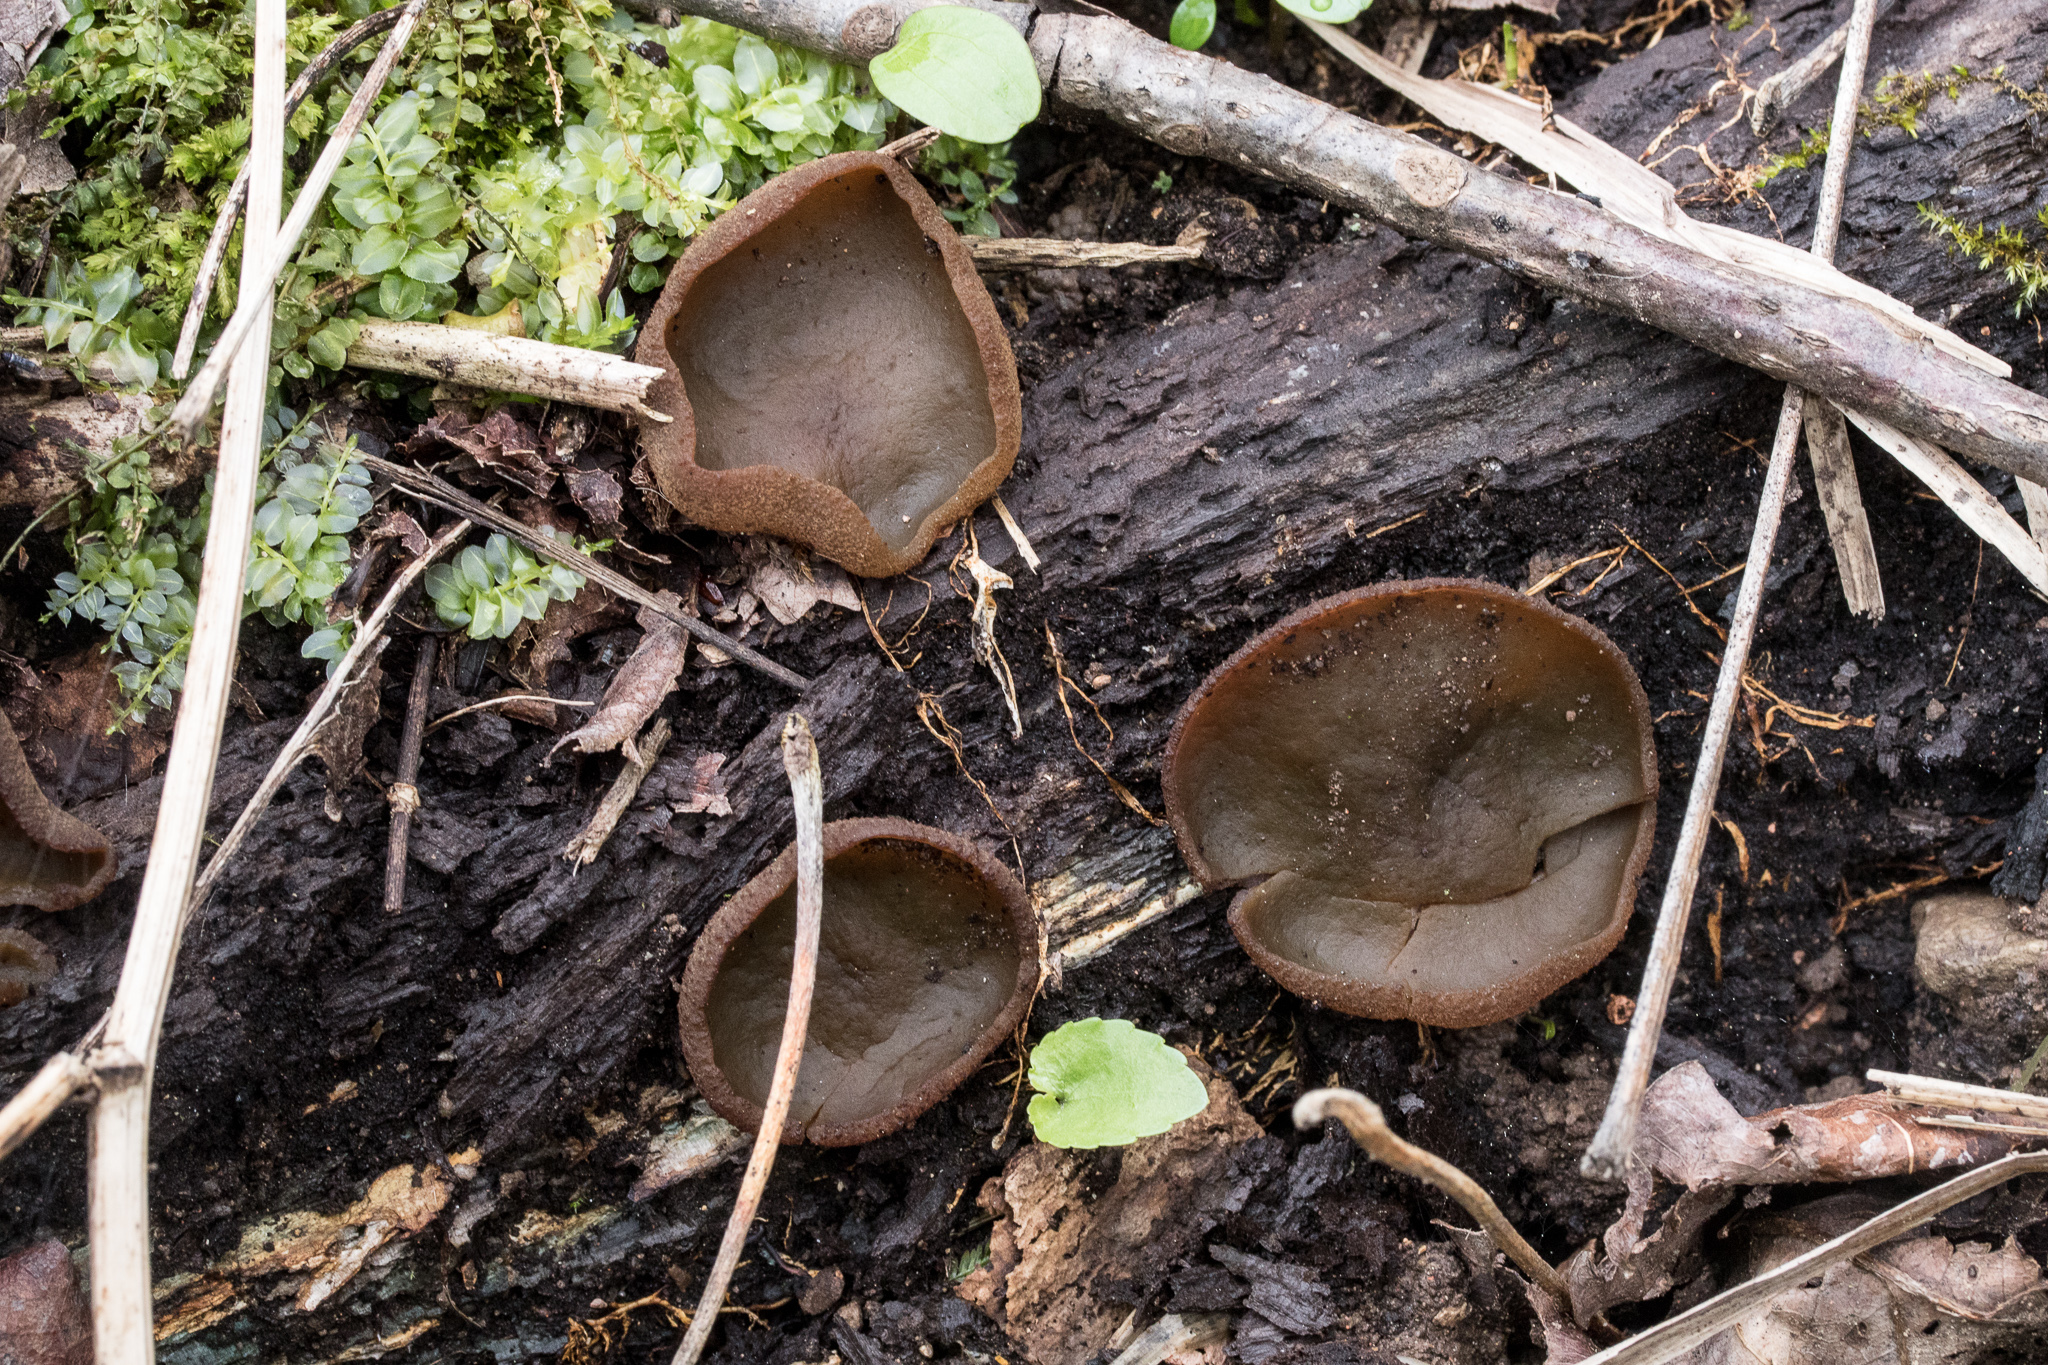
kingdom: Fungi
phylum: Ascomycota
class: Pezizomycetes
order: Pezizales
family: Pezizaceae
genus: Phylloscypha
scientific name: Phylloscypha phyllogena
